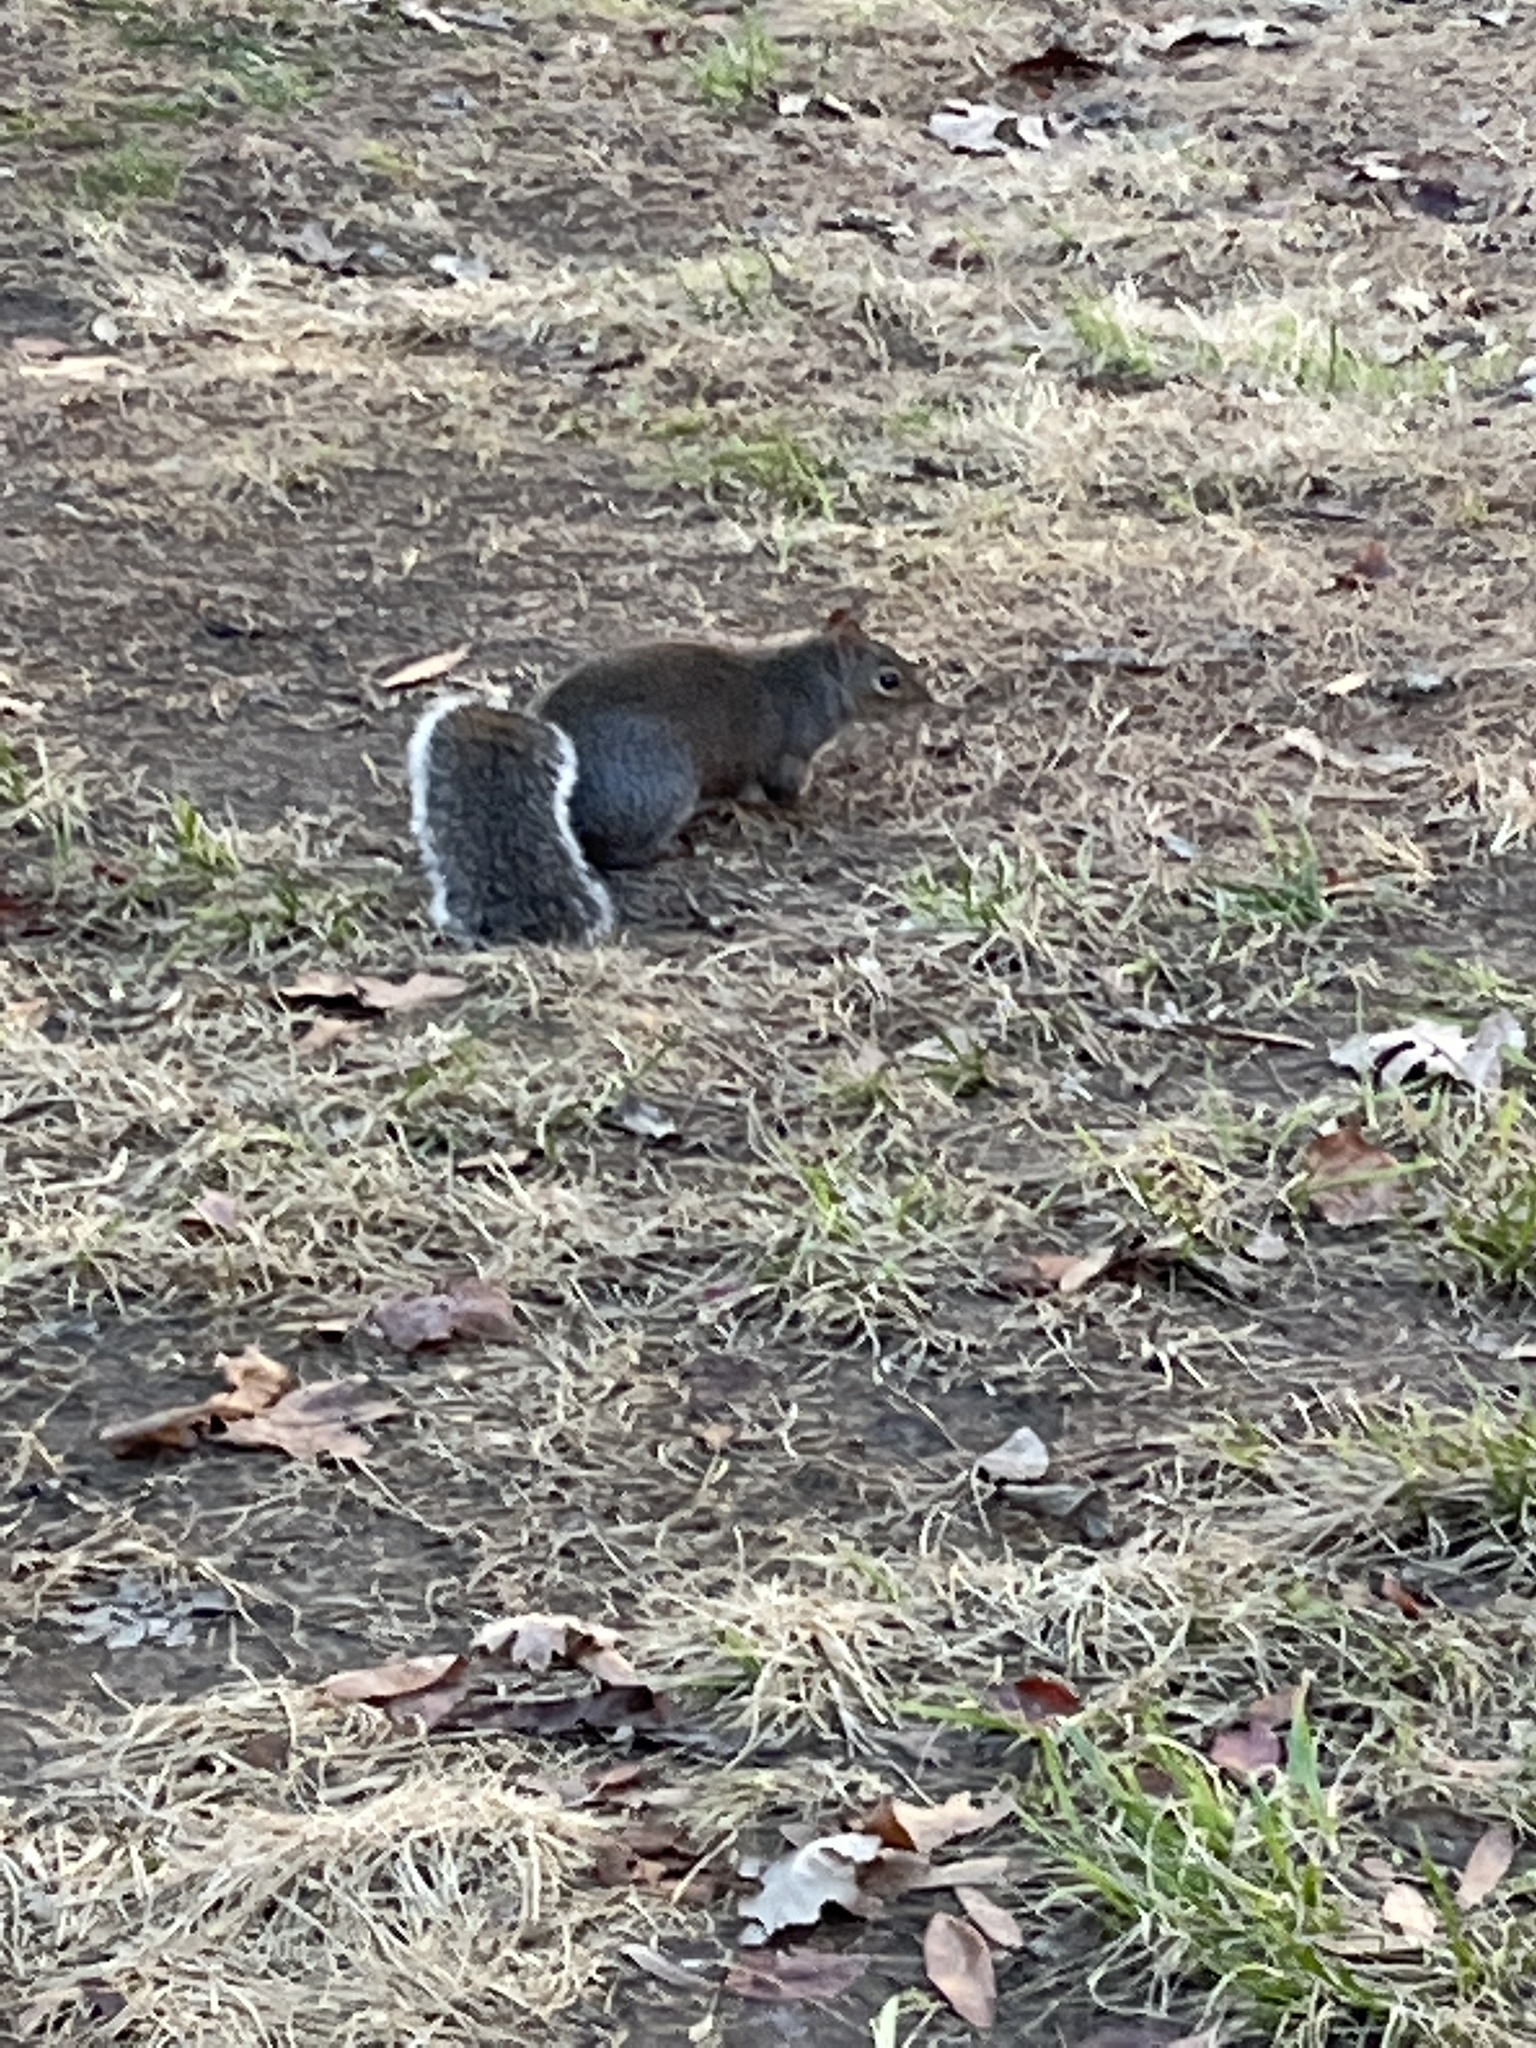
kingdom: Animalia
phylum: Chordata
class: Mammalia
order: Rodentia
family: Sciuridae
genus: Sciurus
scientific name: Sciurus carolinensis
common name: Eastern gray squirrel
